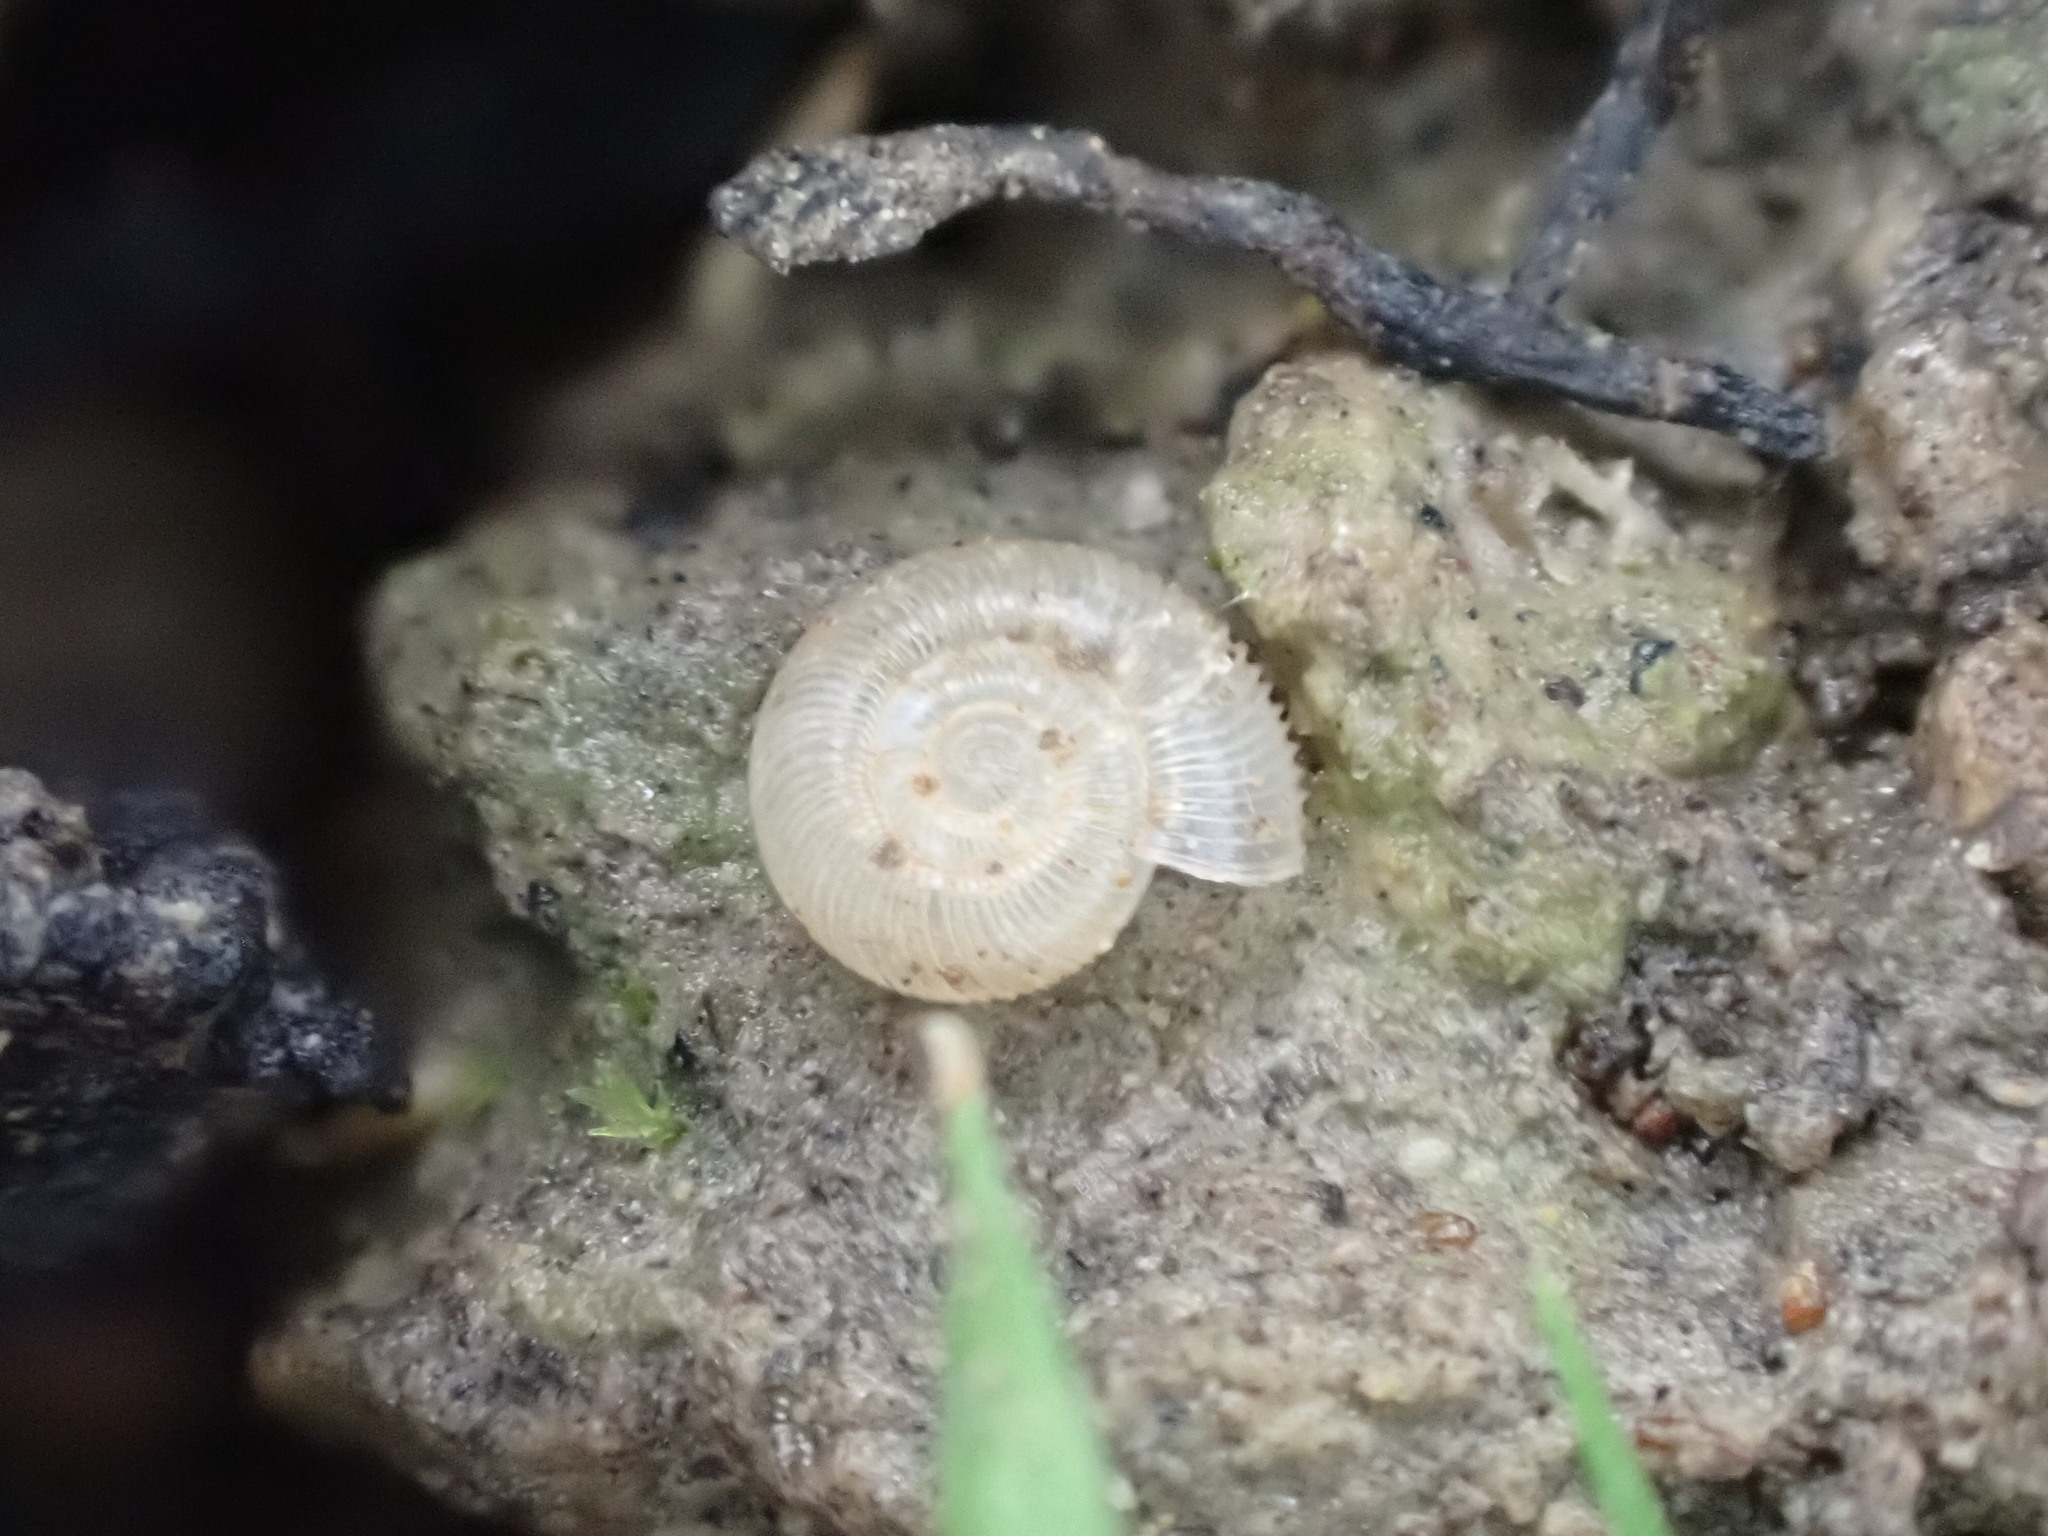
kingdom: Animalia
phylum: Mollusca
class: Gastropoda
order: Stylommatophora
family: Charopidae
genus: Mocella
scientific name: Mocella eta
